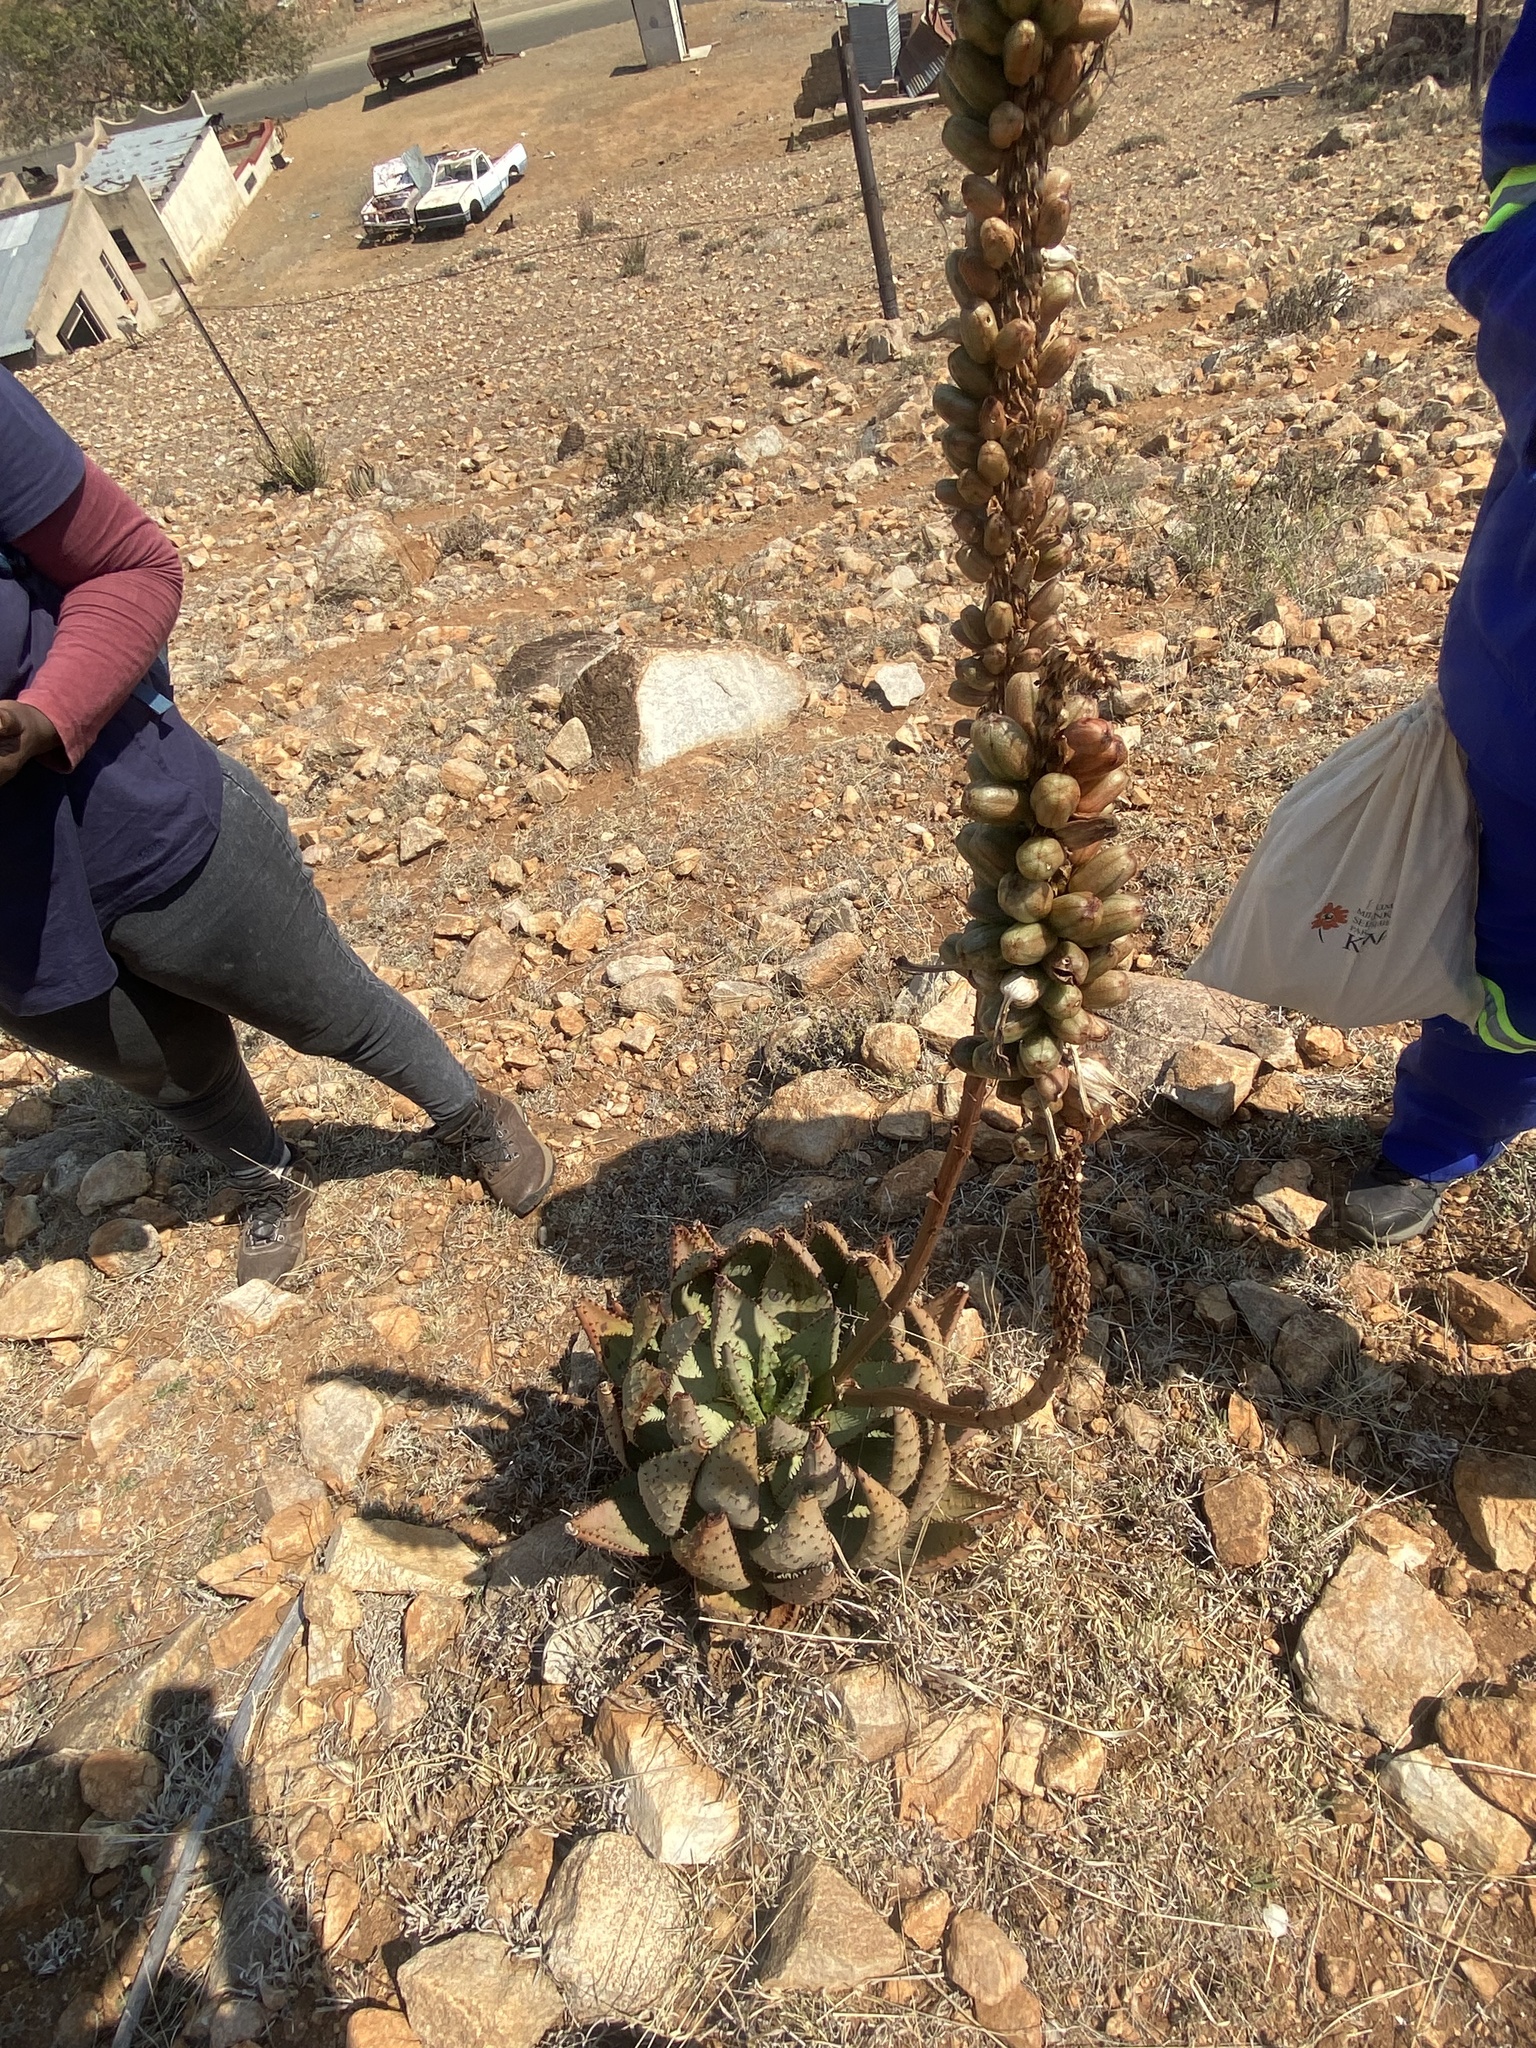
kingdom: Plantae
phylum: Tracheophyta
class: Liliopsida
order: Asparagales
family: Asphodelaceae
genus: Aloe
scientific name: Aloe aculeata
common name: Red hot poker aloe
